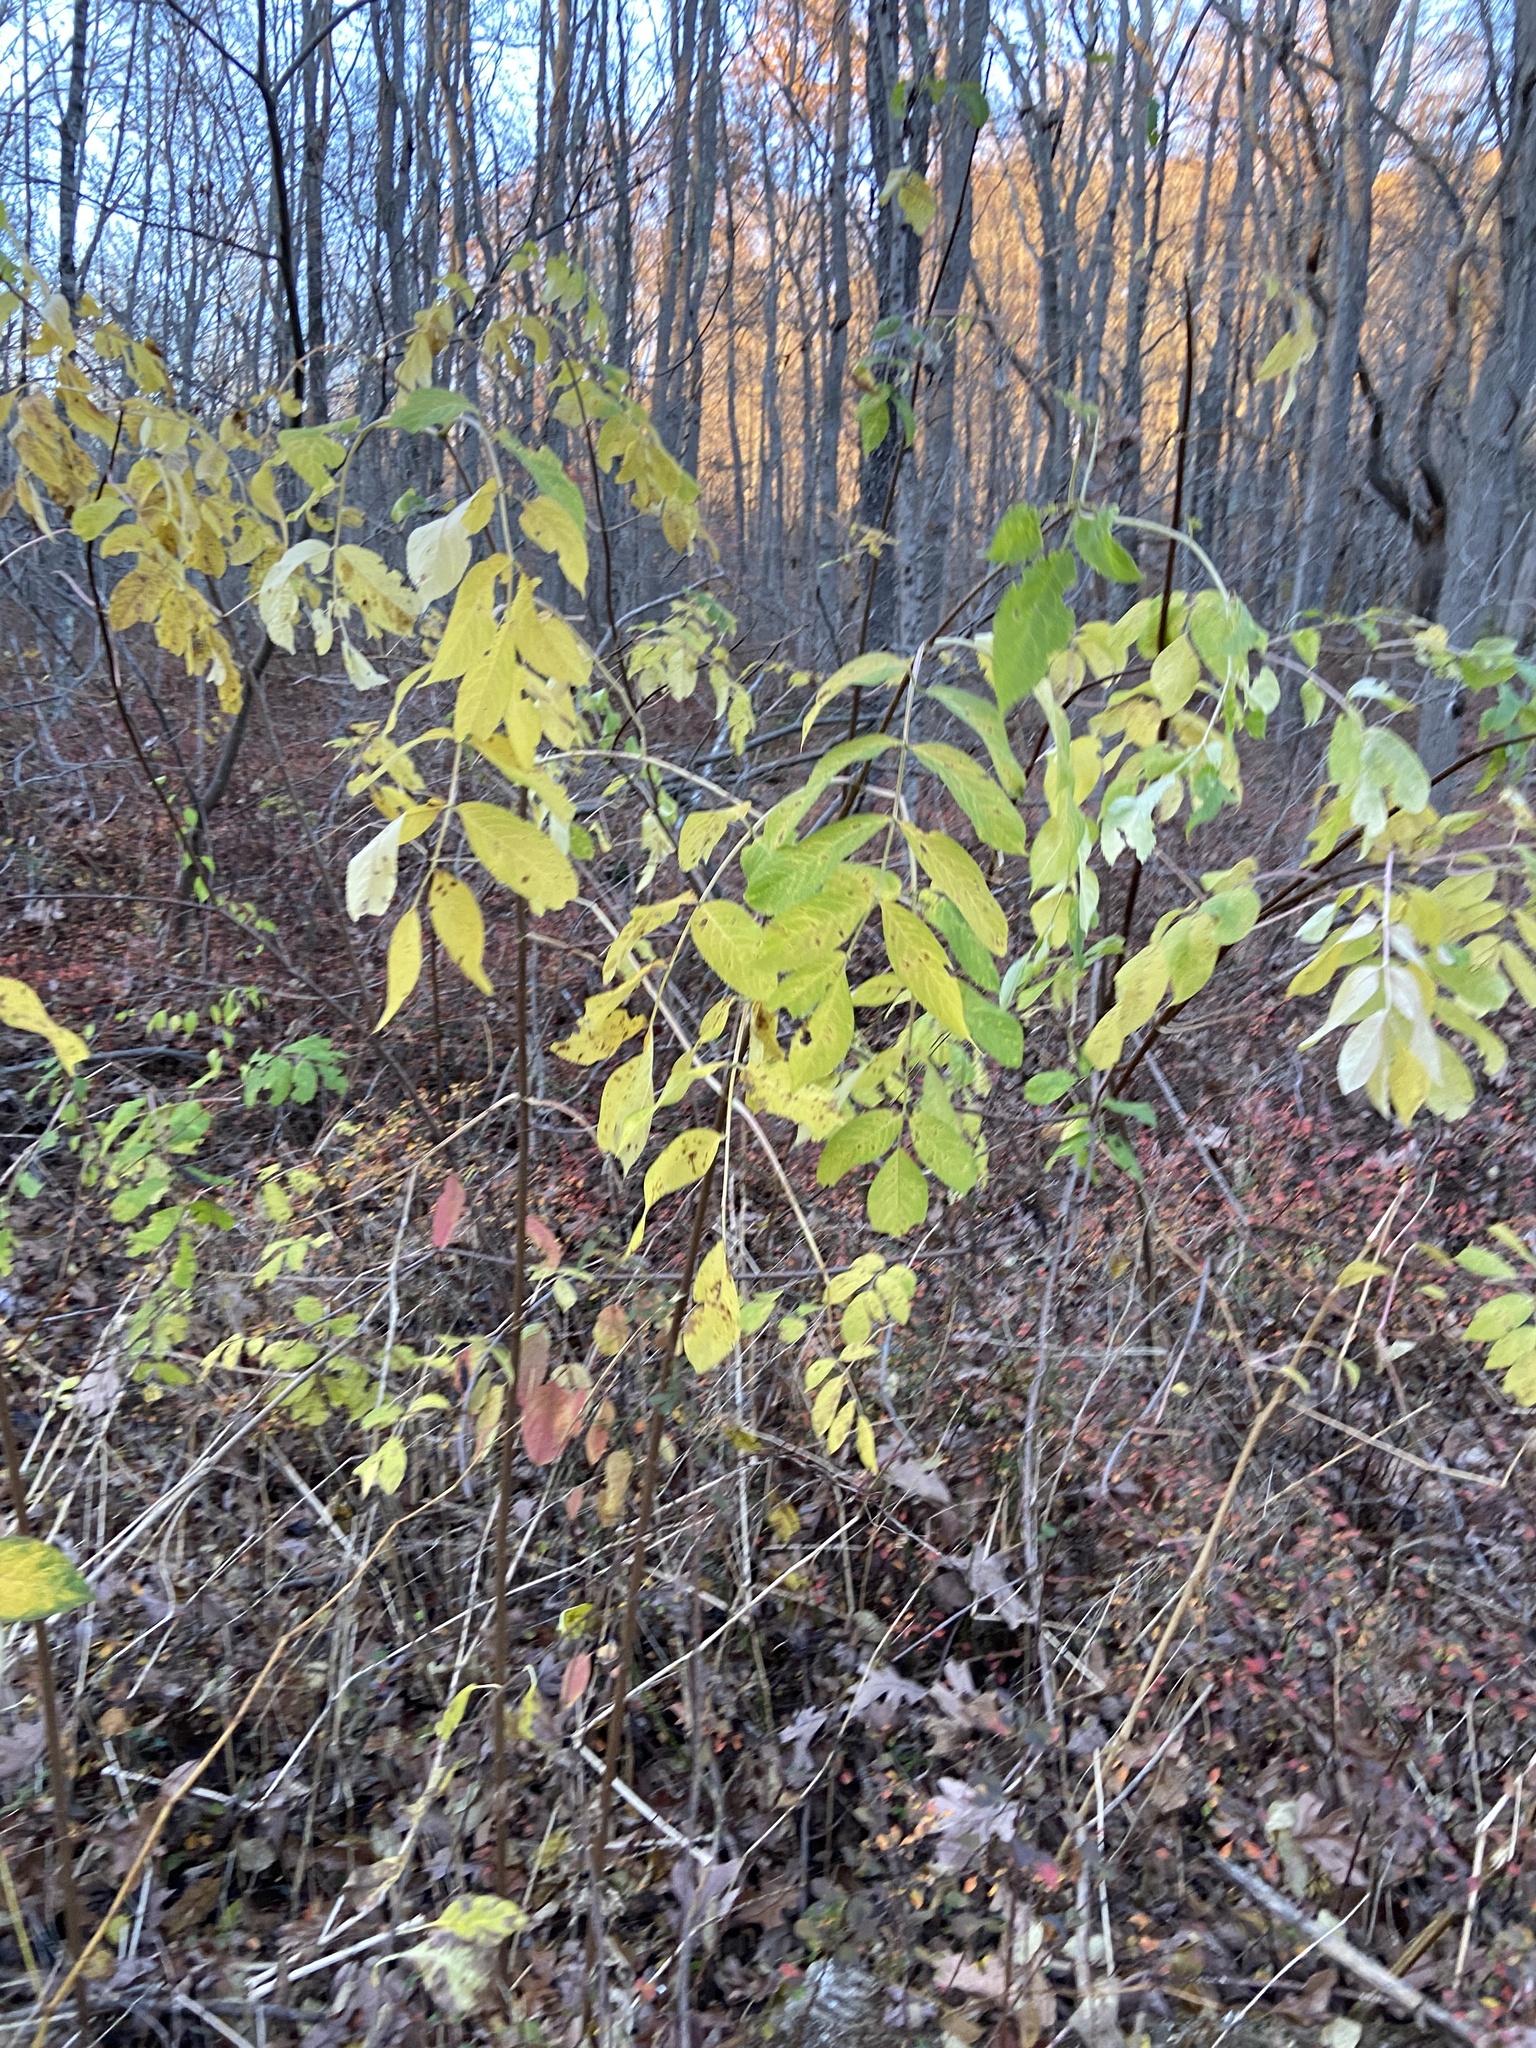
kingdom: Plantae
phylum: Tracheophyta
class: Magnoliopsida
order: Dipsacales
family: Viburnaceae
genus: Sambucus
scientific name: Sambucus canadensis
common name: American elder
